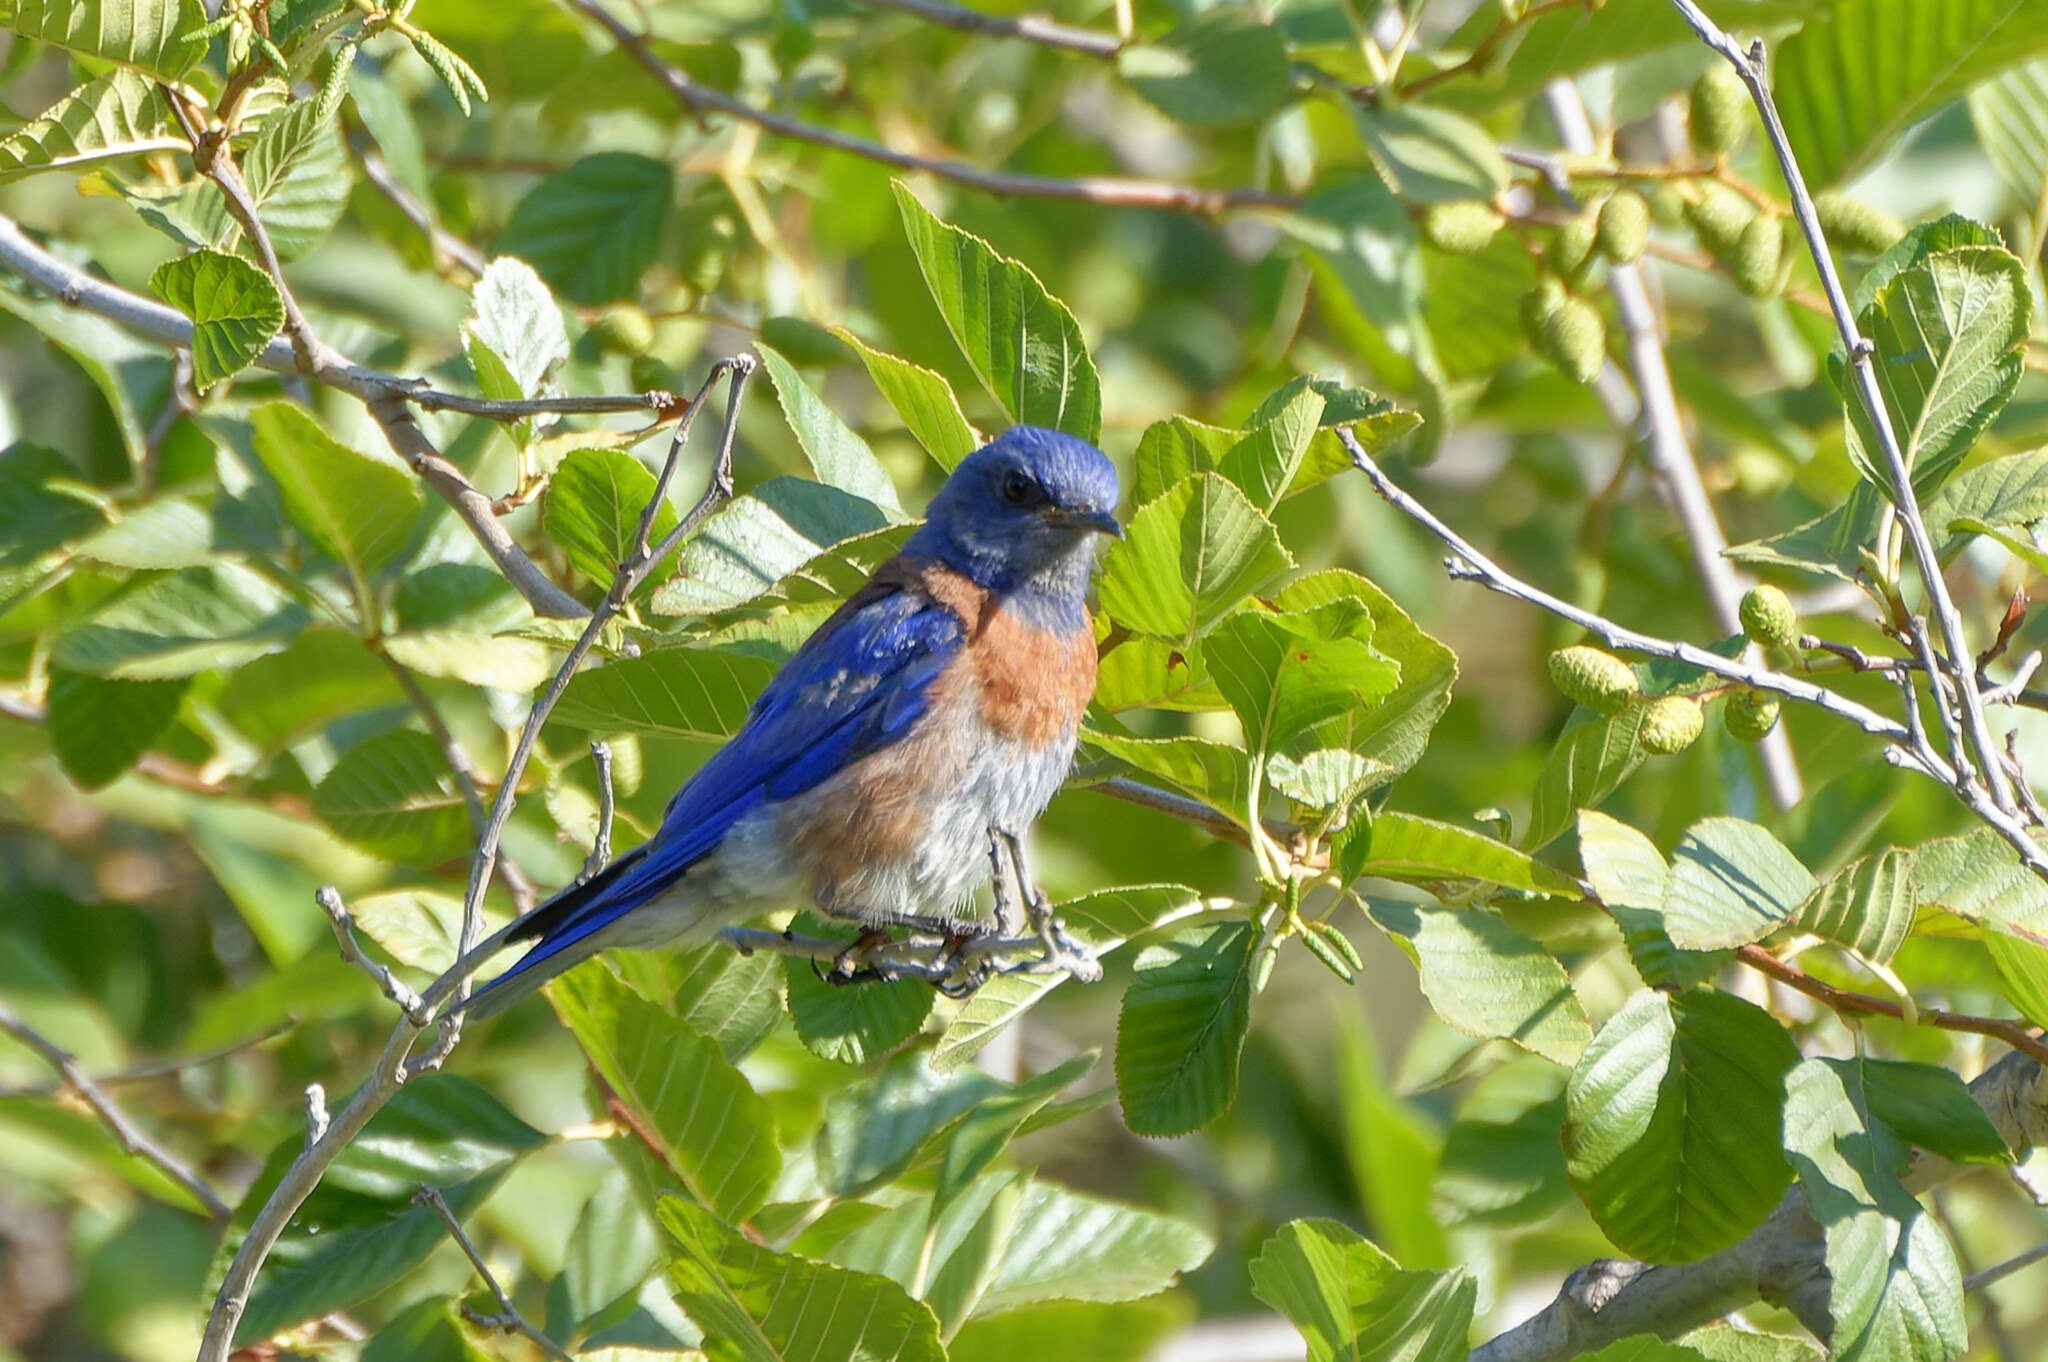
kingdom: Animalia
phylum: Chordata
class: Aves
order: Passeriformes
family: Turdidae
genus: Sialia
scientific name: Sialia mexicana
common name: Western bluebird
